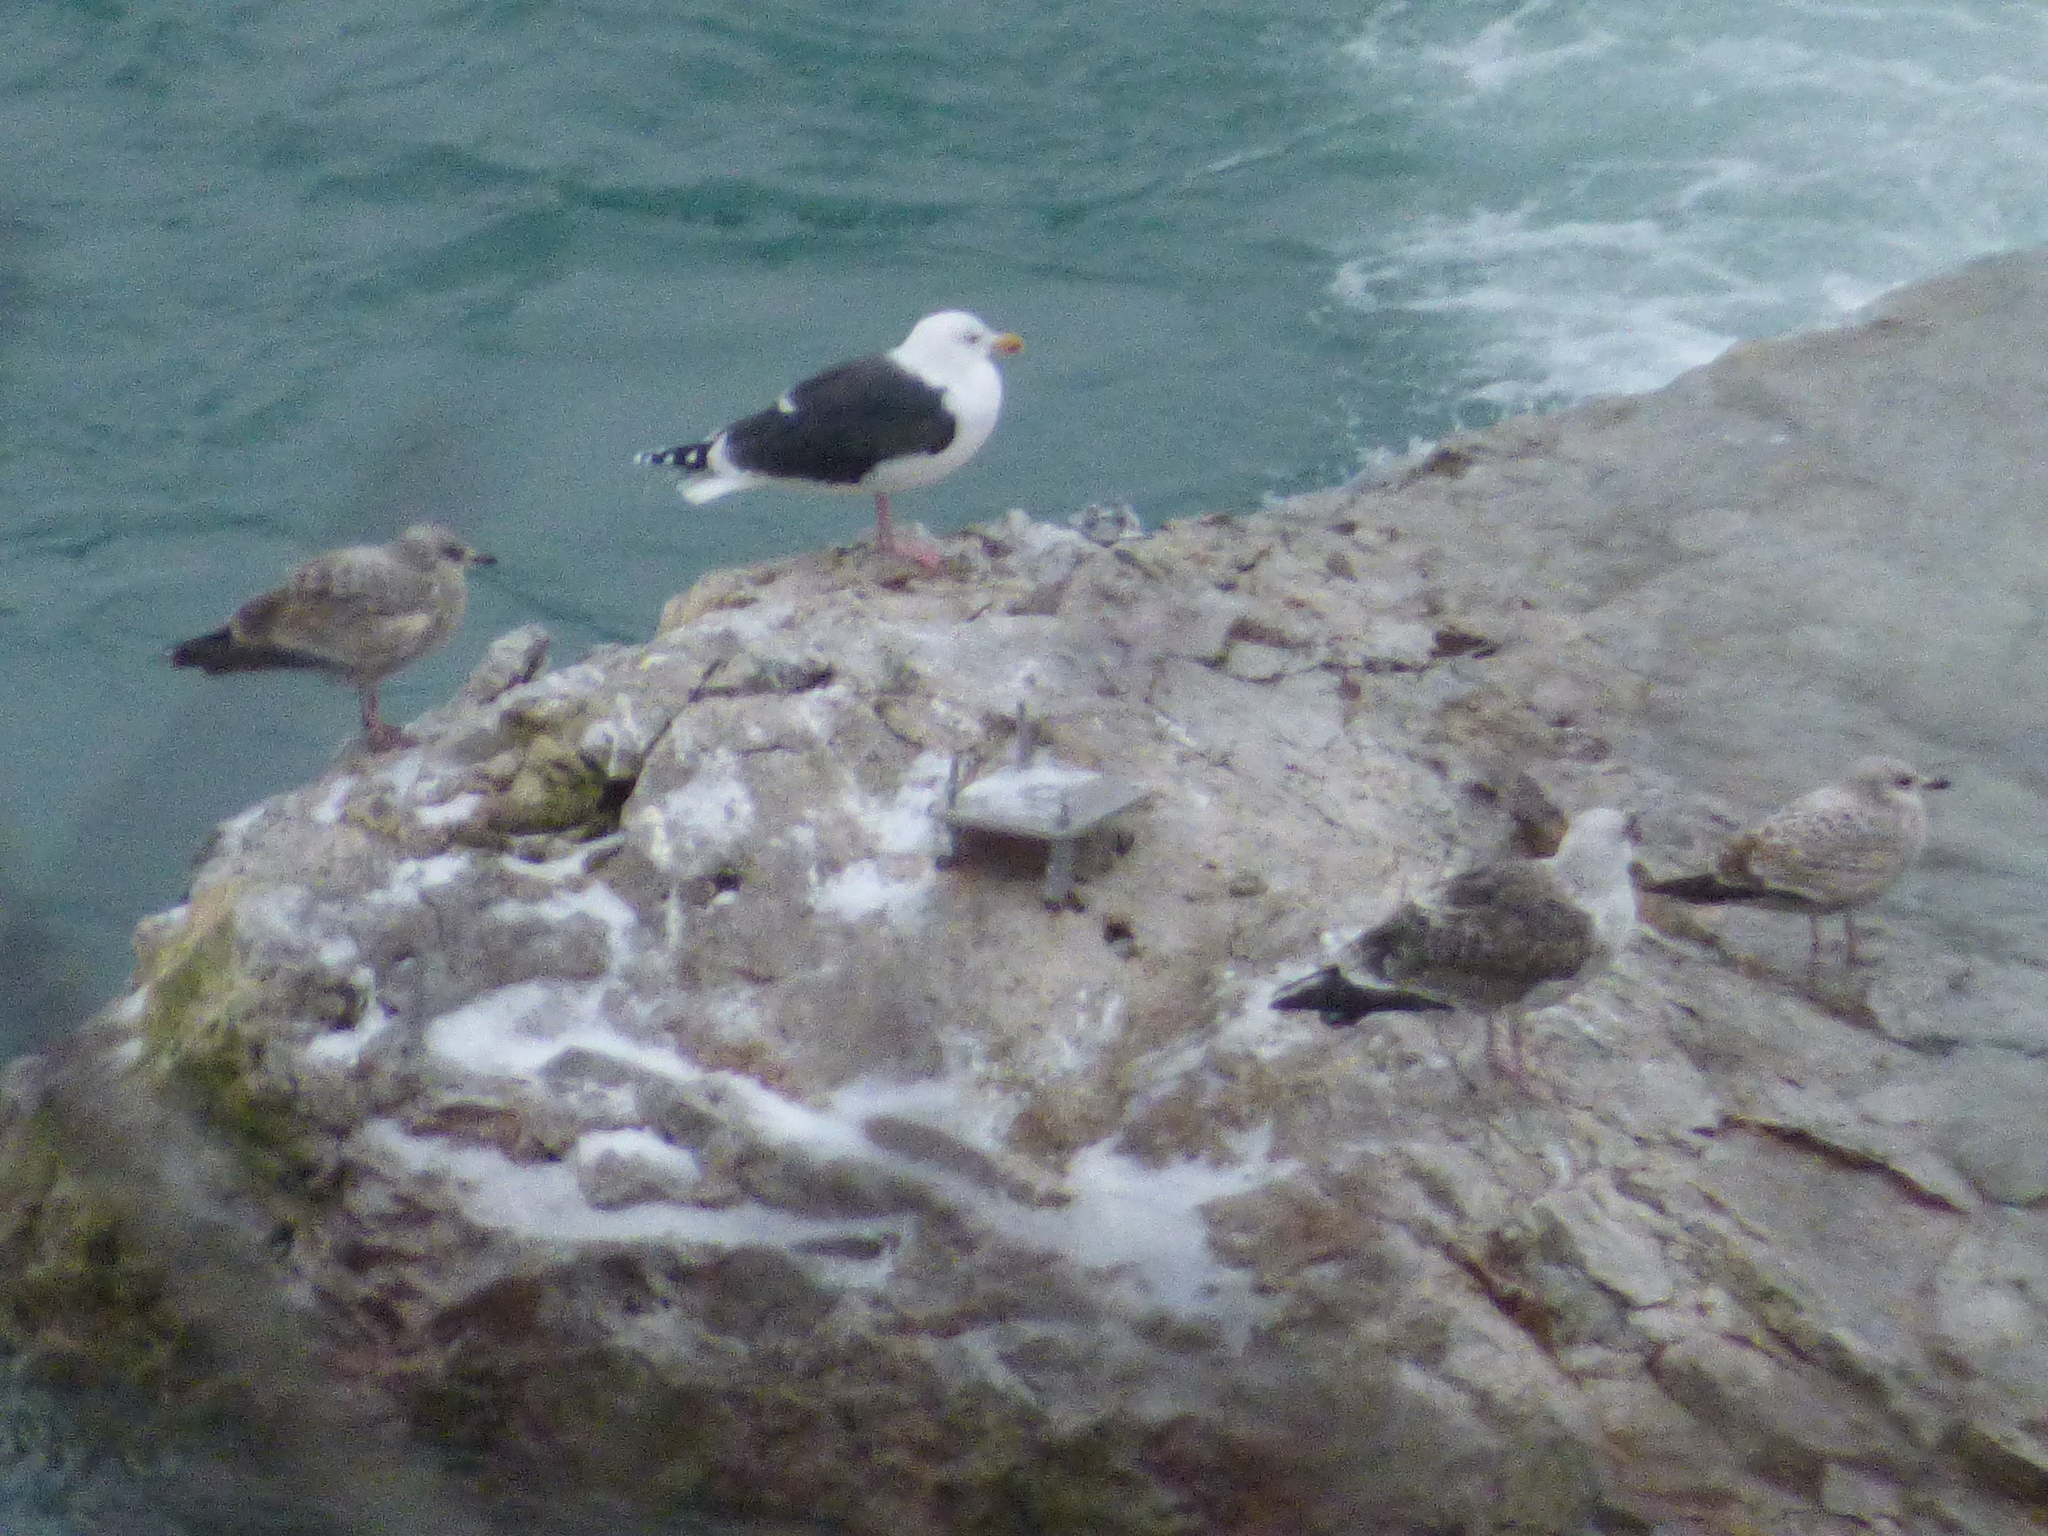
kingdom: Animalia
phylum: Chordata
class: Aves
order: Charadriiformes
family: Laridae
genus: Larus
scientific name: Larus argentatus
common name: Herring gull
